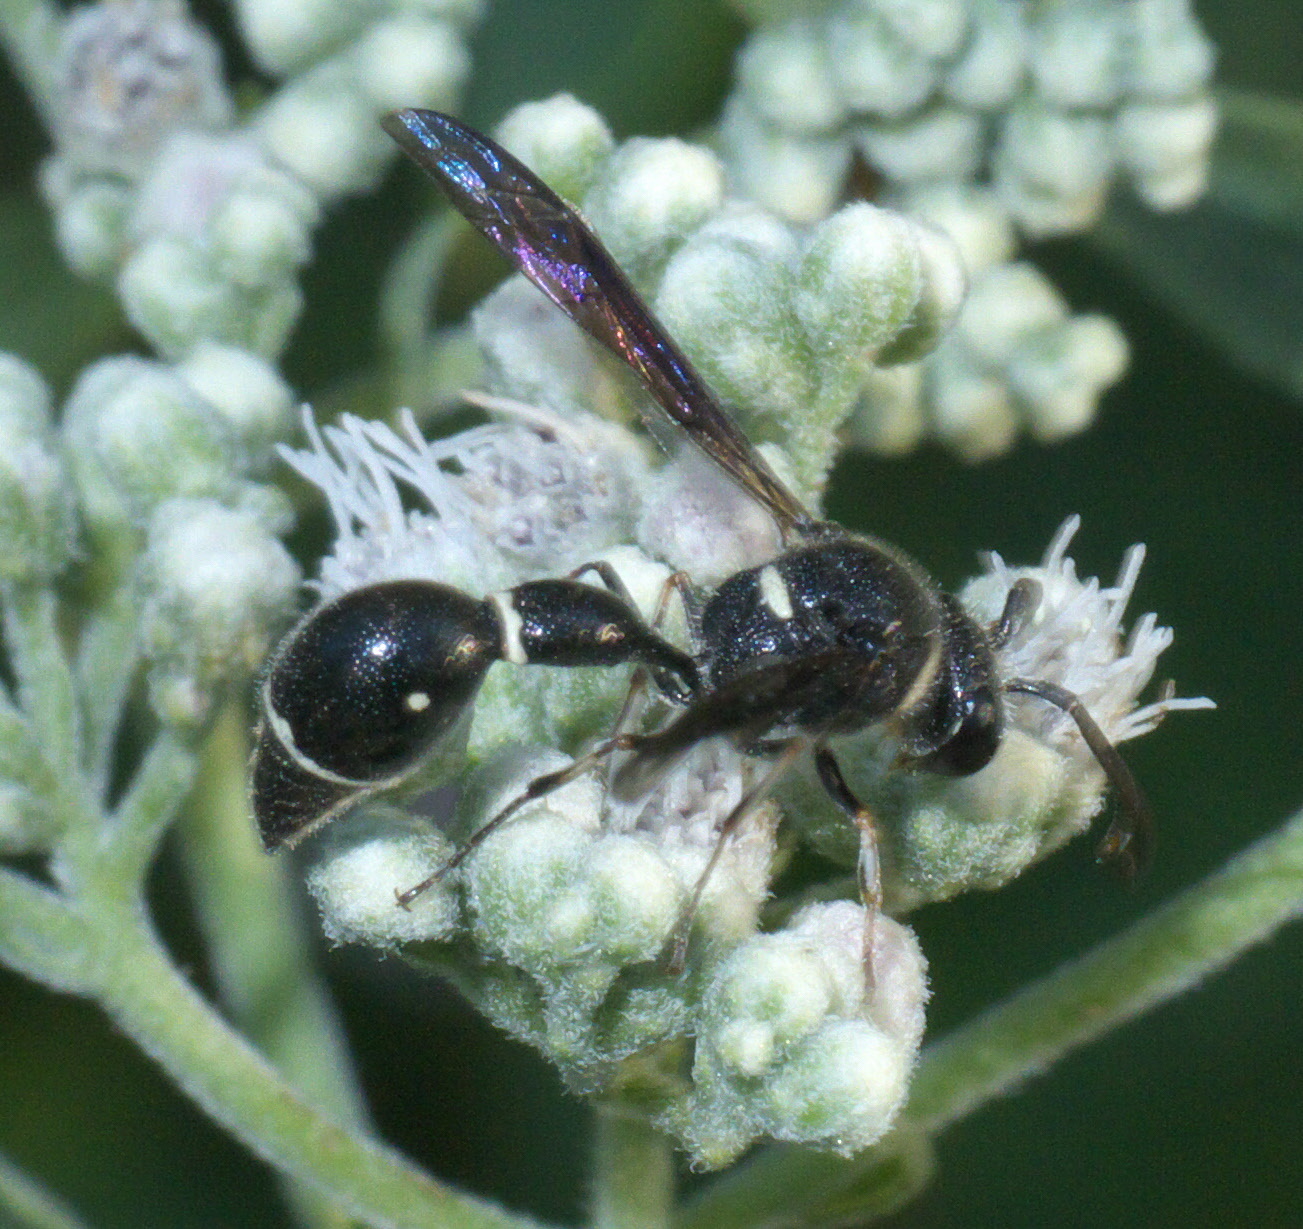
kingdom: Animalia
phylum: Arthropoda
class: Insecta
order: Hymenoptera
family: Vespidae
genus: Eumenes
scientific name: Eumenes fraternus
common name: Fraternal potter wasp
